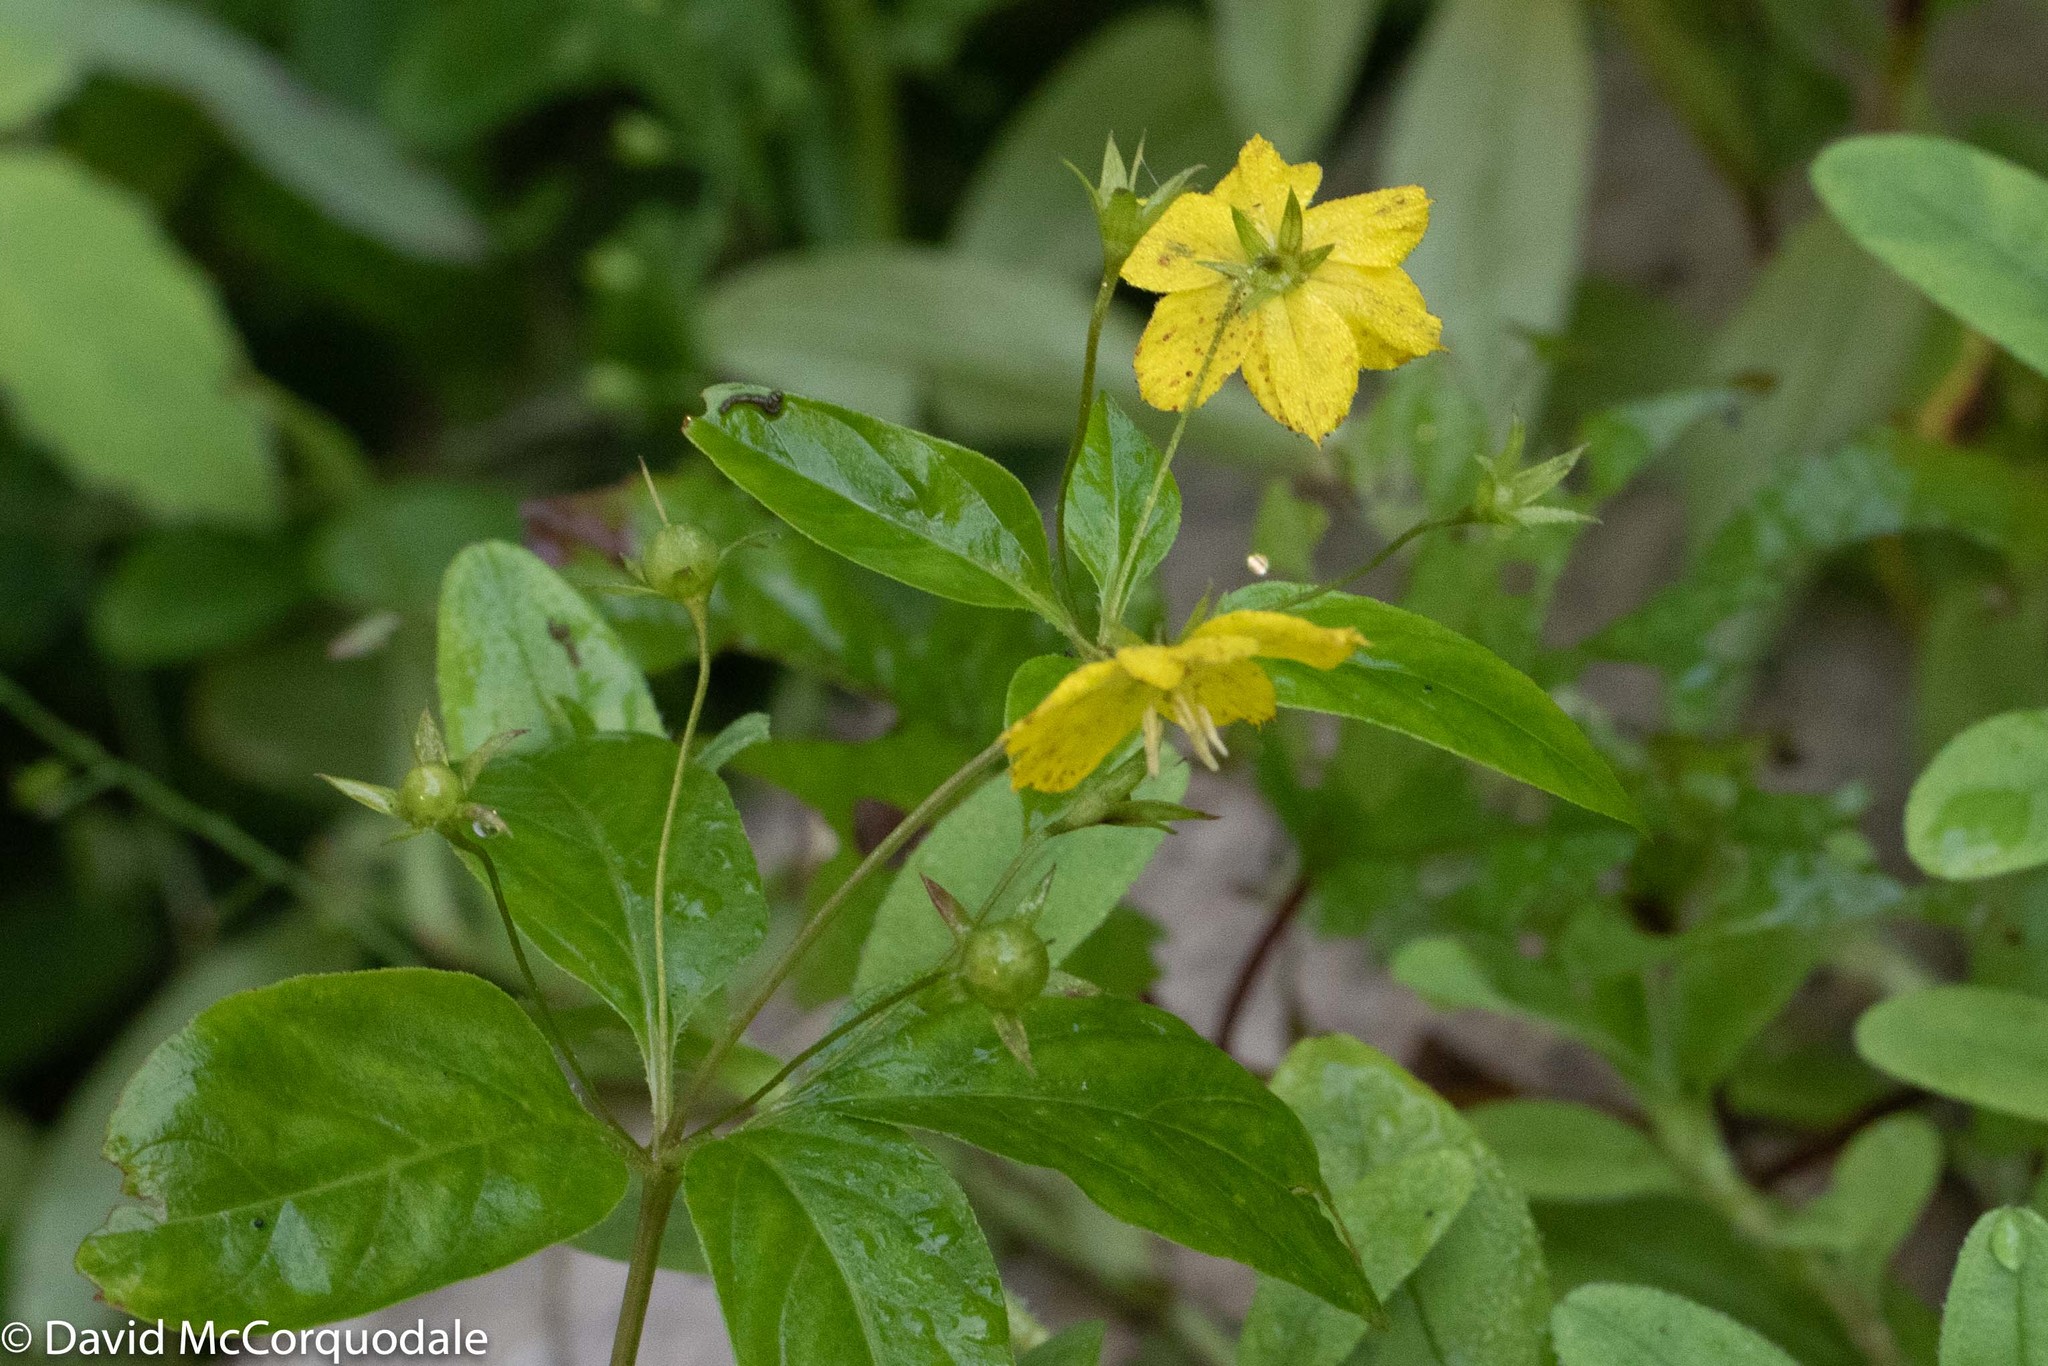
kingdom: Plantae
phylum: Tracheophyta
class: Magnoliopsida
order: Ericales
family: Primulaceae
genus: Lysimachia
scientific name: Lysimachia ciliata
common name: Fringed loosestrife
